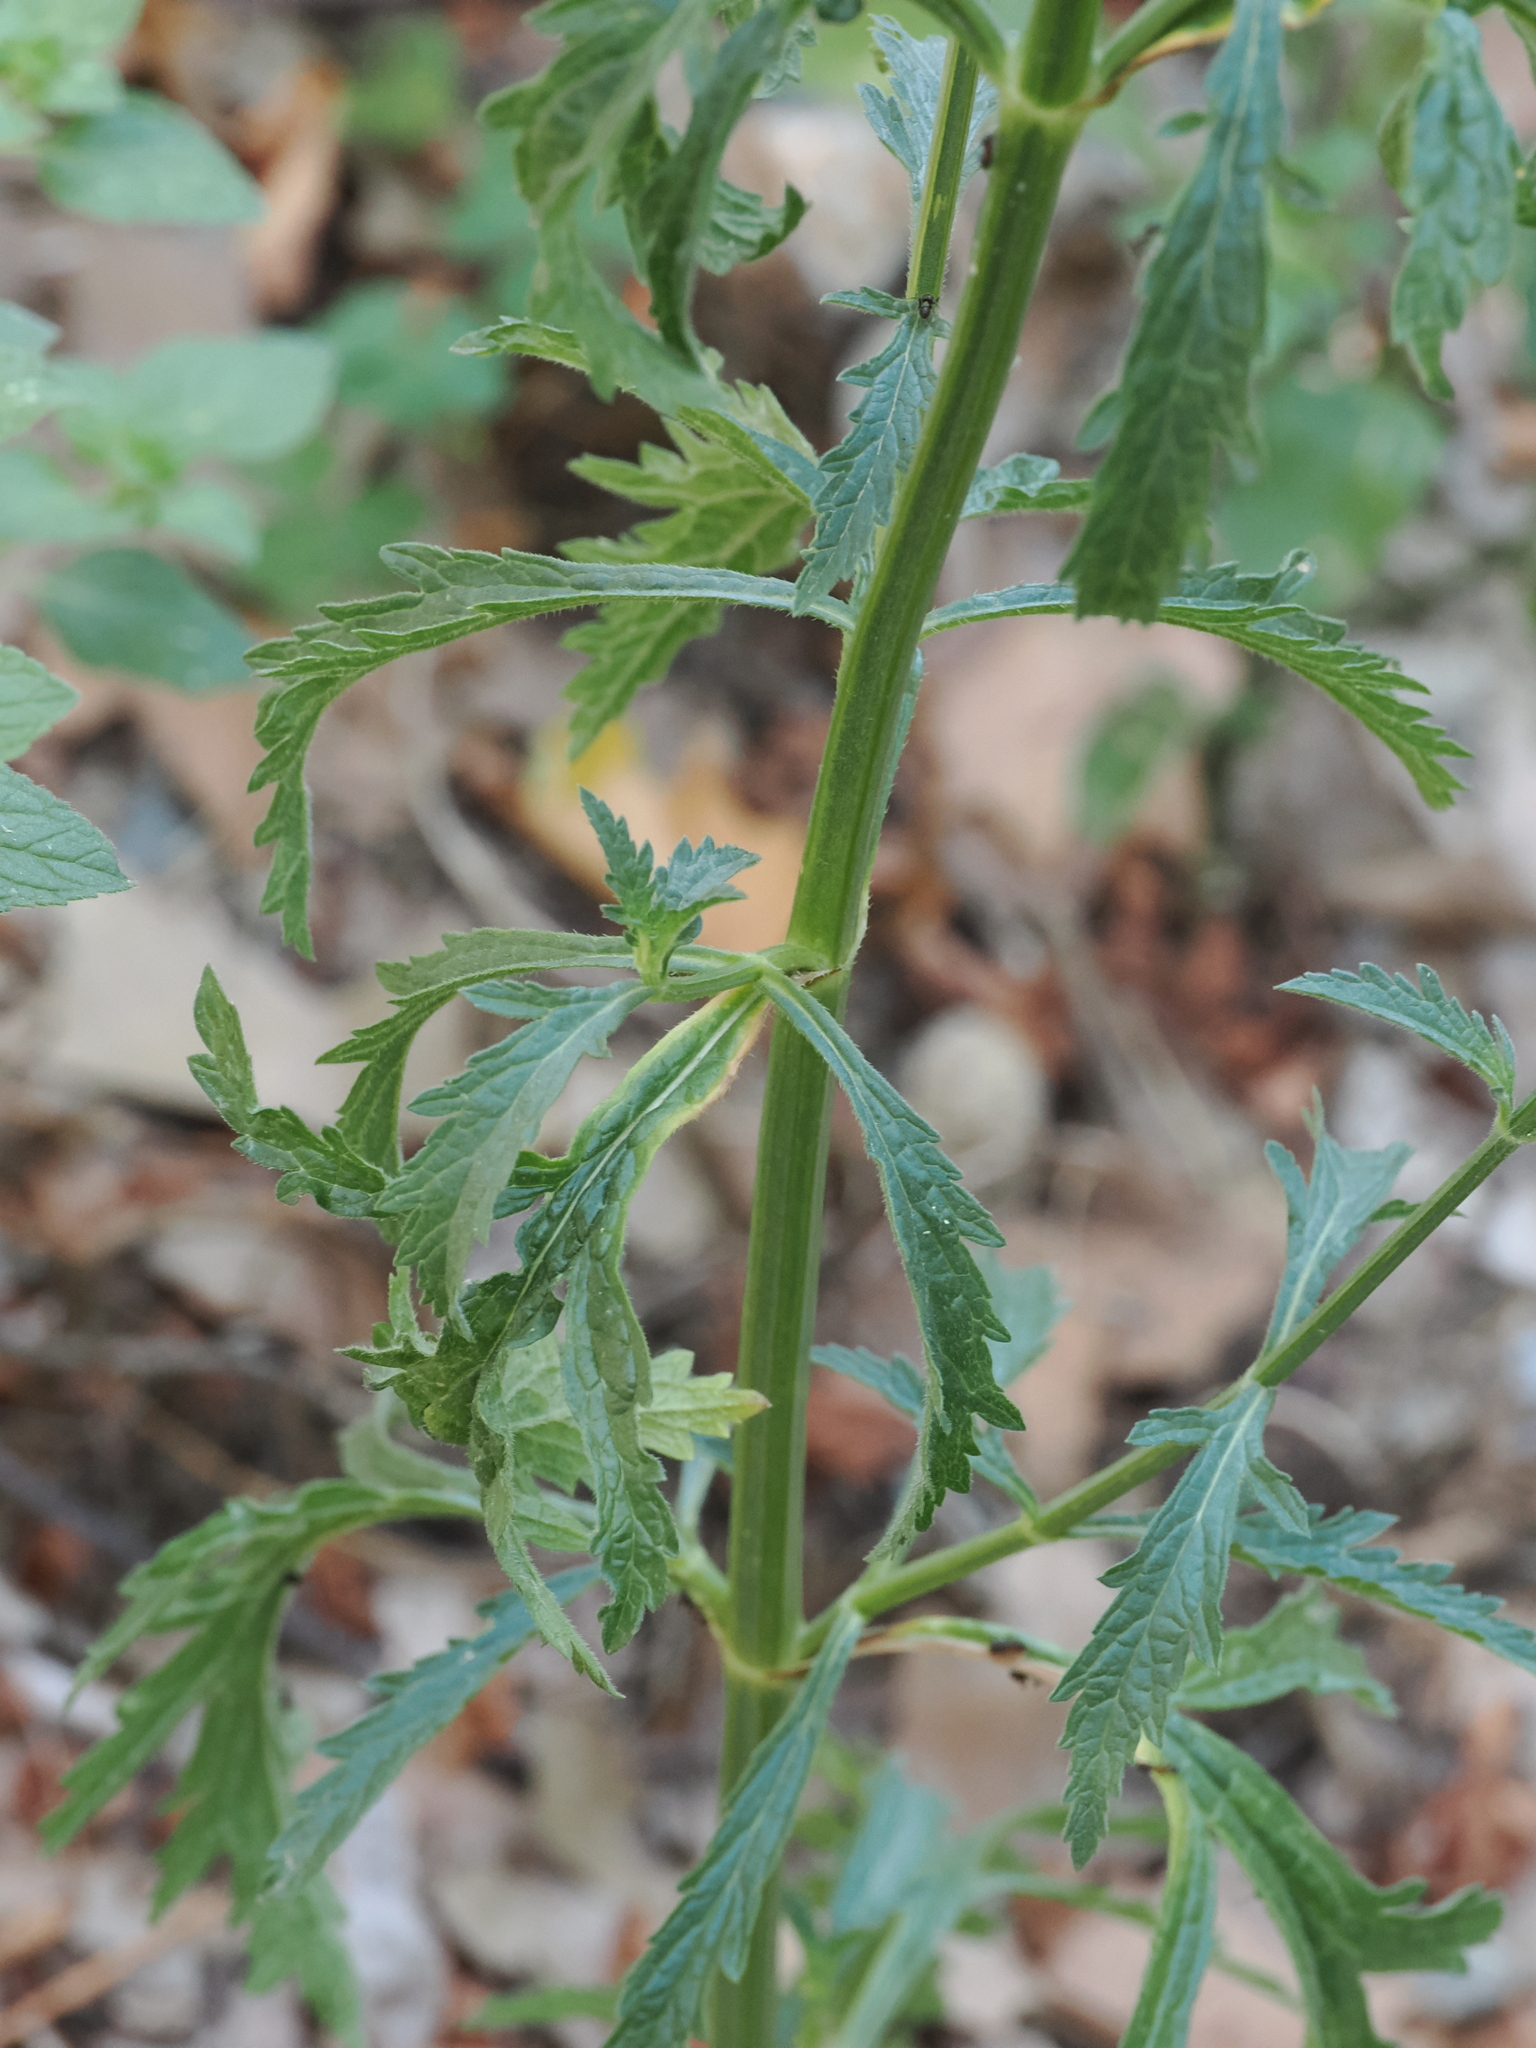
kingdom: Plantae
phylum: Tracheophyta
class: Magnoliopsida
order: Lamiales
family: Verbenaceae
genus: Verbena
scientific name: Verbena officinalis
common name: Vervain
